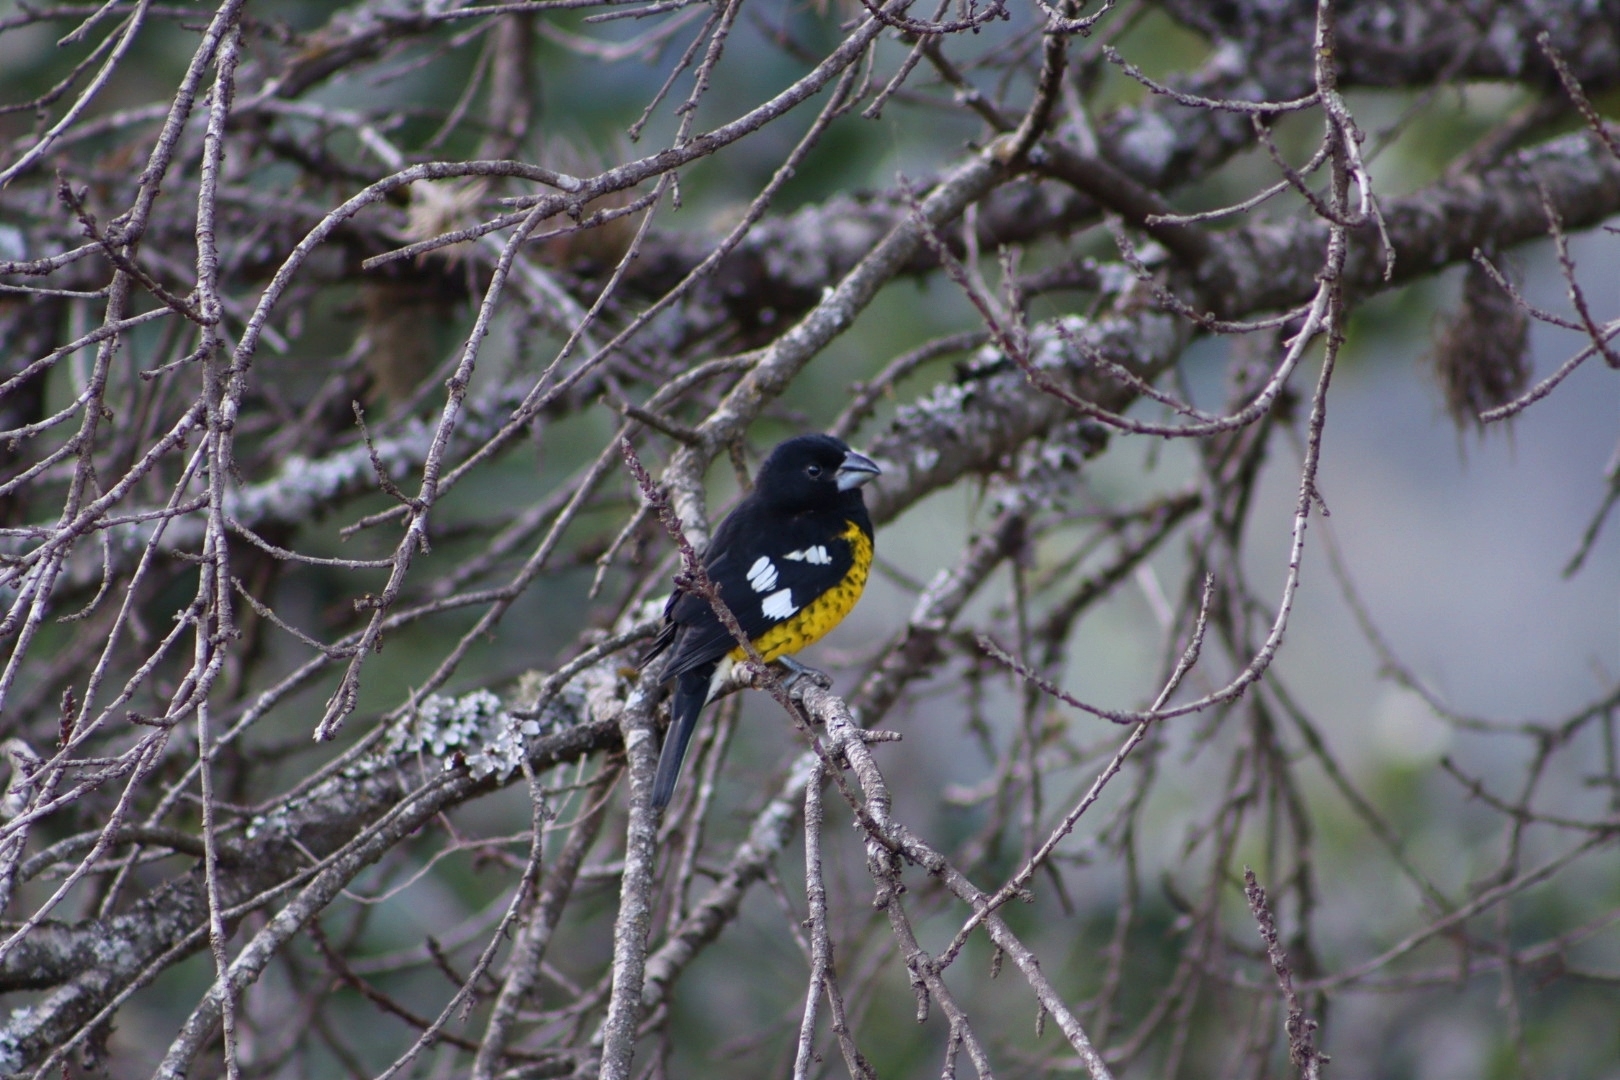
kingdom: Animalia
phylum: Chordata
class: Aves
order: Passeriformes
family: Cardinalidae
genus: Pheucticus
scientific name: Pheucticus aureoventris
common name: Black-backed grosbeak
